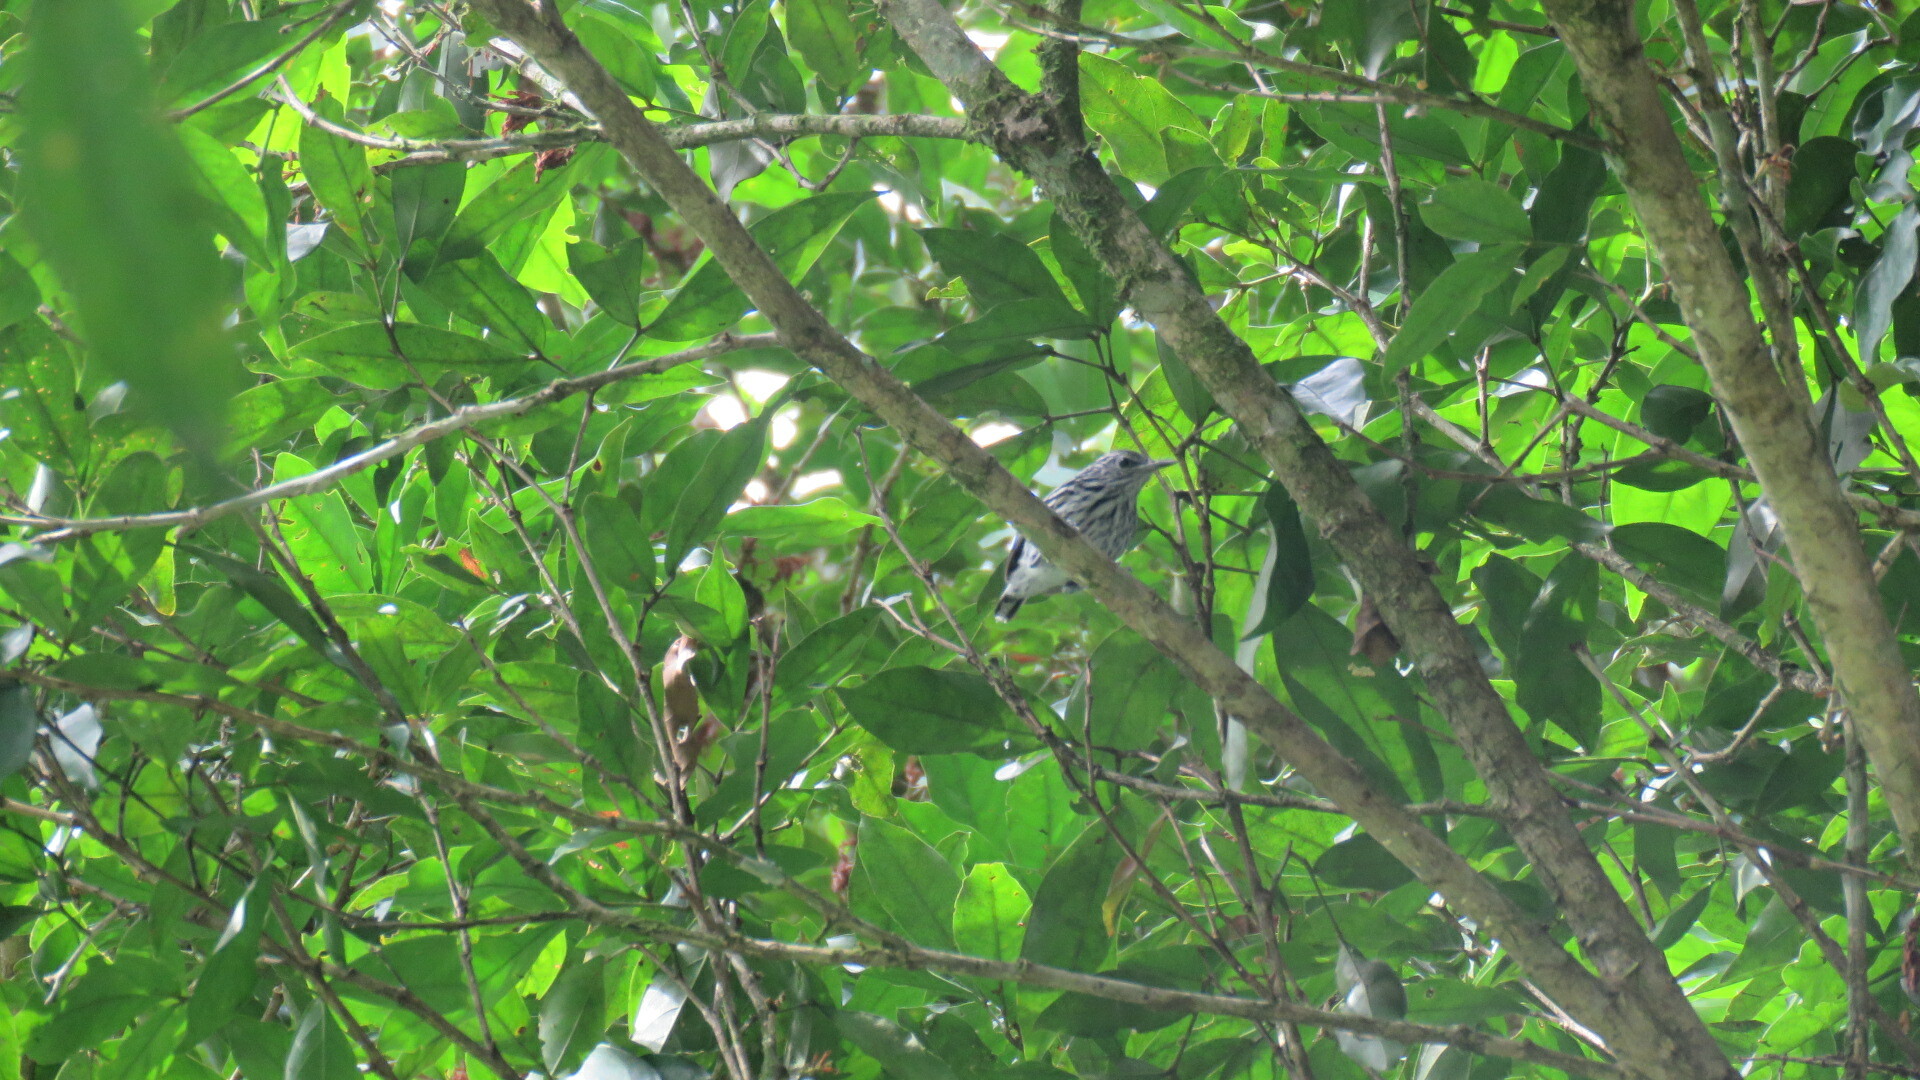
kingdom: Animalia
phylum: Chordata
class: Aves
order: Passeriformes
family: Thamnophilidae
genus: Myrmotherula
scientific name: Myrmotherula pacifica
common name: Pacific antwren
